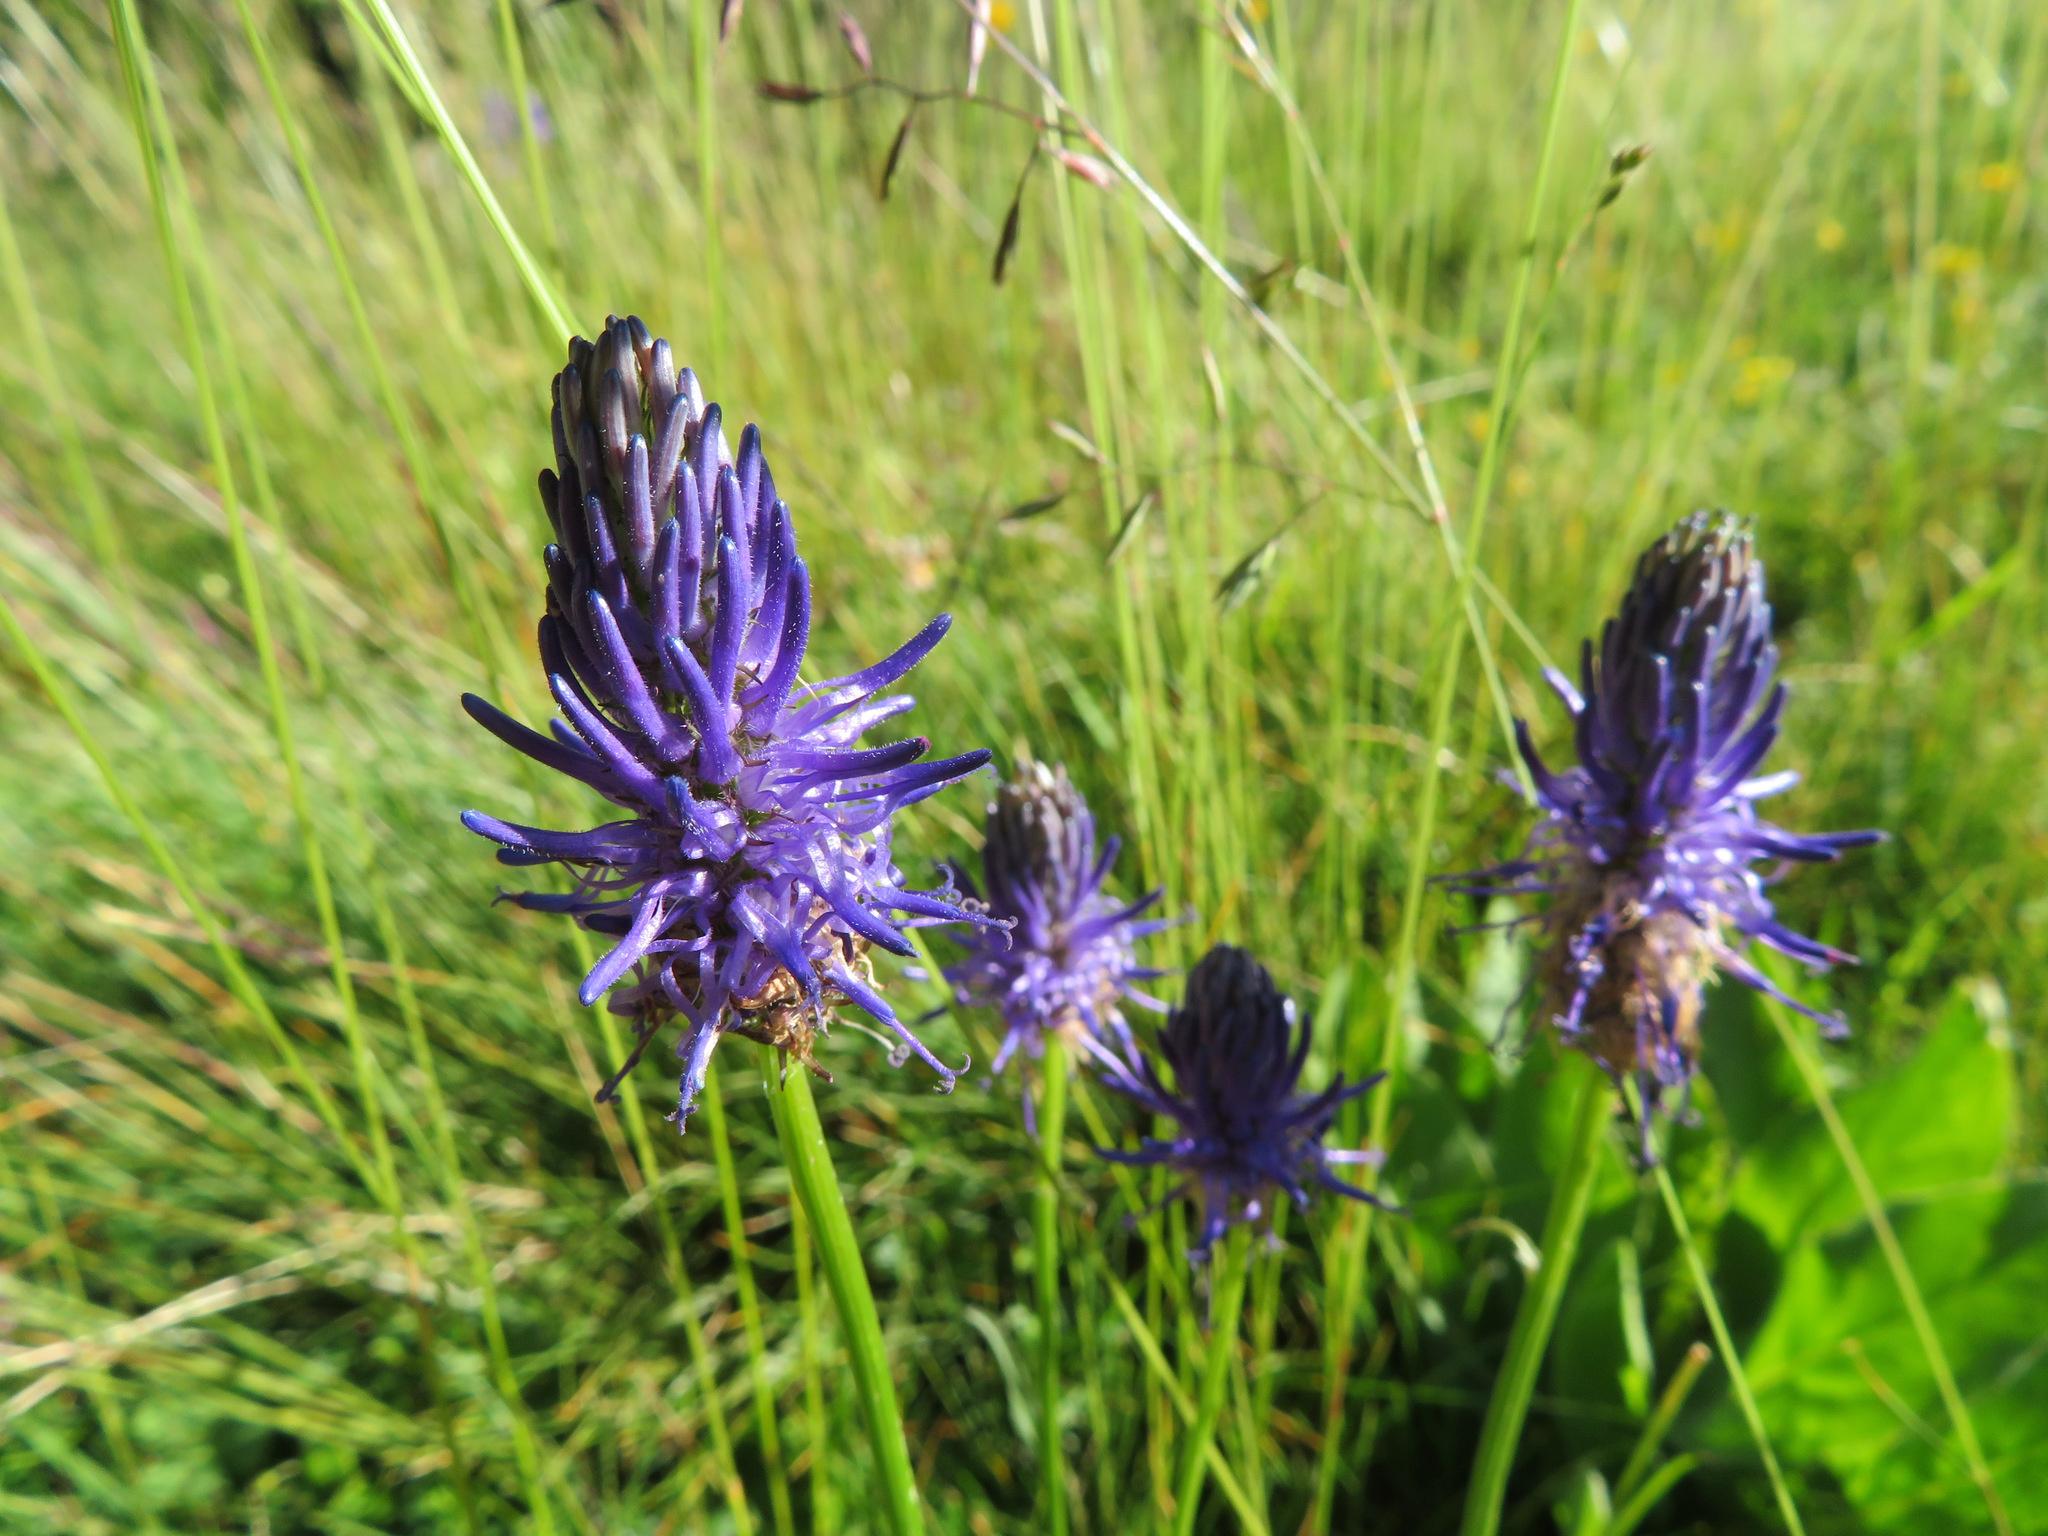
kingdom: Plantae
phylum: Tracheophyta
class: Magnoliopsida
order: Asterales
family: Campanulaceae
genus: Phyteuma
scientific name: Phyteuma betonicifolium
